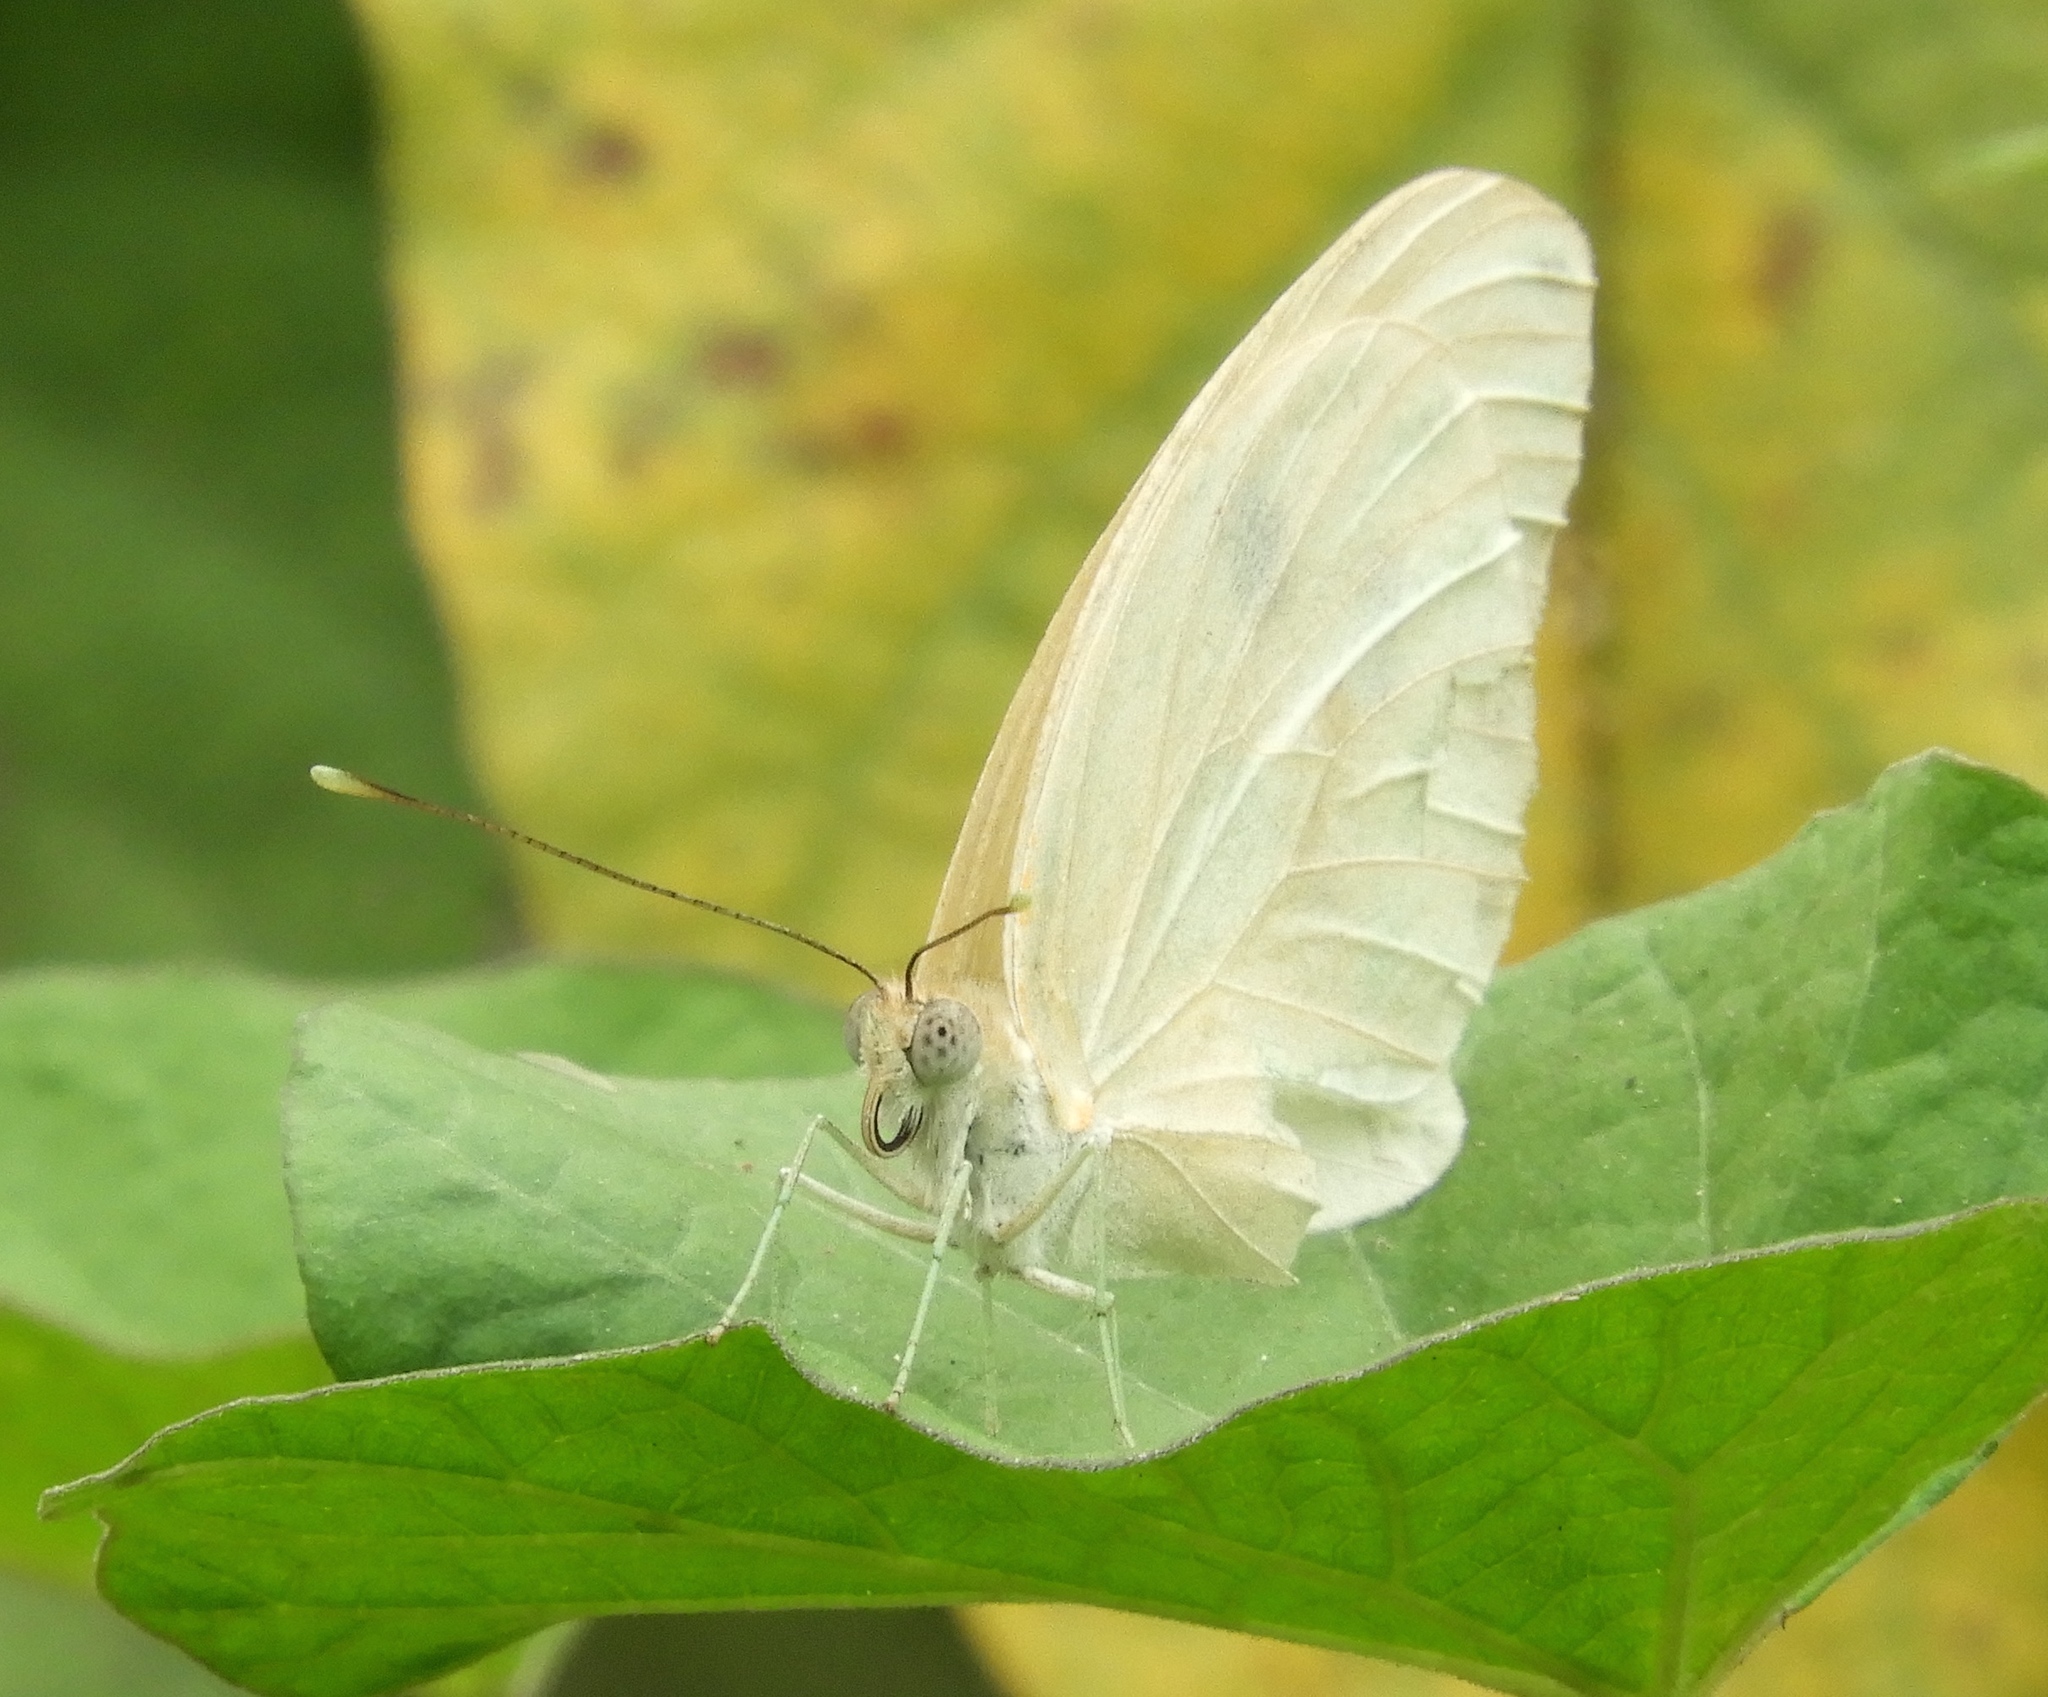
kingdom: Animalia
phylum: Arthropoda
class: Insecta
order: Lepidoptera
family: Pieridae
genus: Ganyra
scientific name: Ganyra josephina
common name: Giant white
